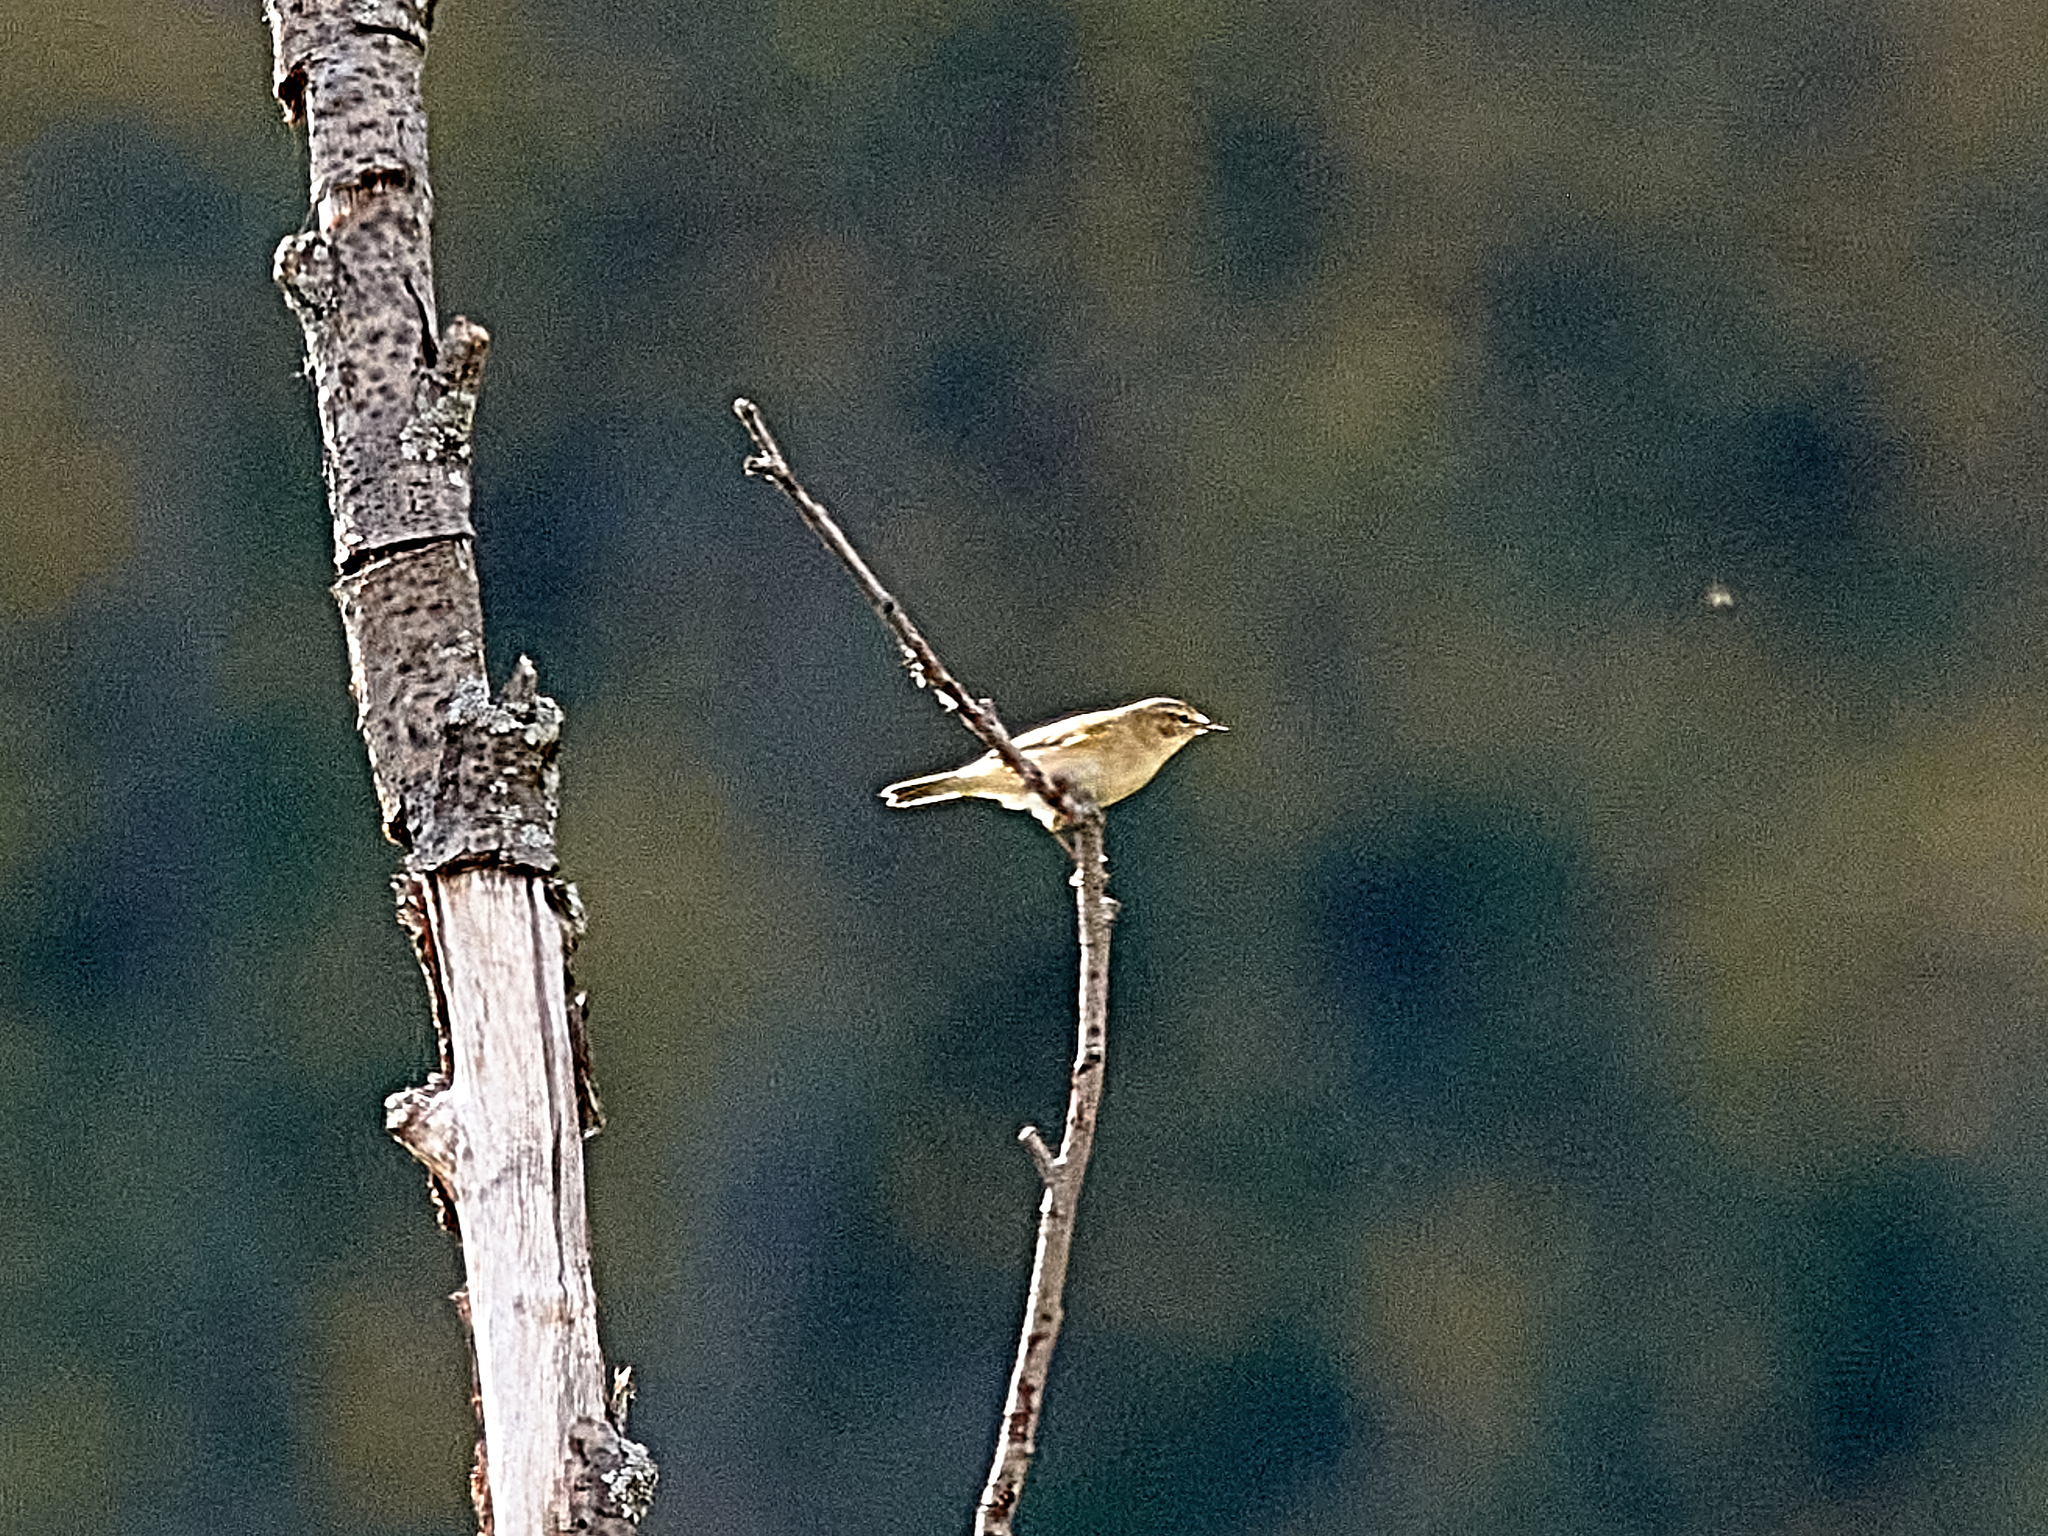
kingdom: Animalia
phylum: Chordata
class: Aves
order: Passeriformes
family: Muscicapidae
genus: Saxicola
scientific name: Saxicola rubetra
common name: Whinchat
